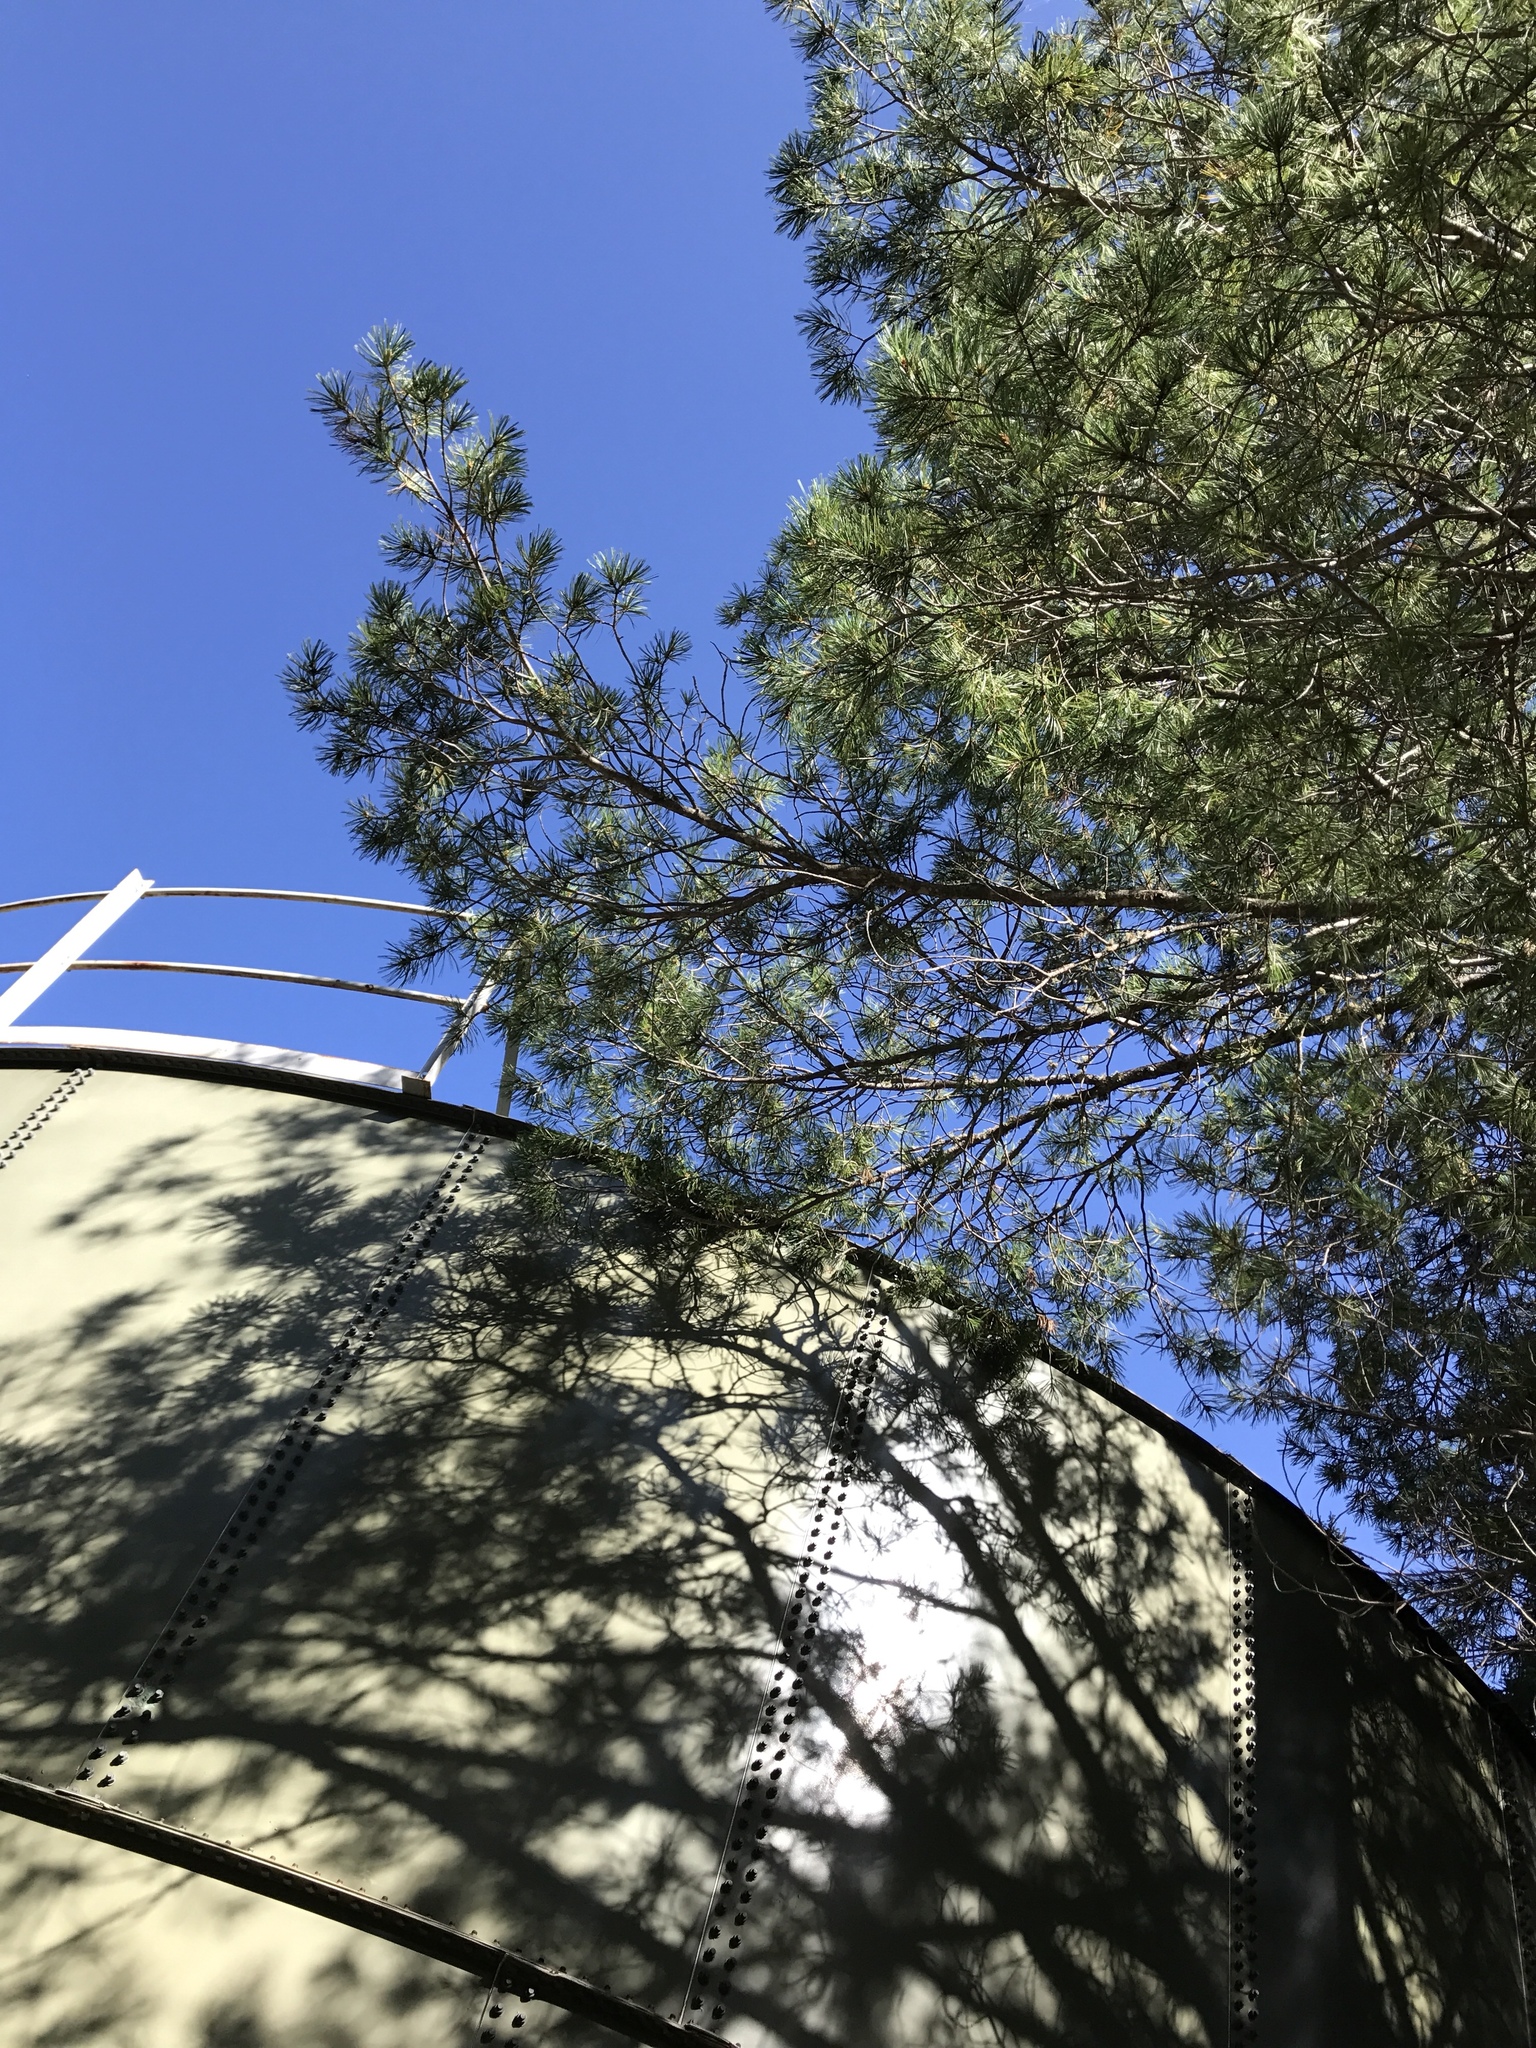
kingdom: Plantae
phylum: Tracheophyta
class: Pinopsida
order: Pinales
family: Pinaceae
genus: Pinus
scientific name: Pinus strobiformis
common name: Southwestern white pine
